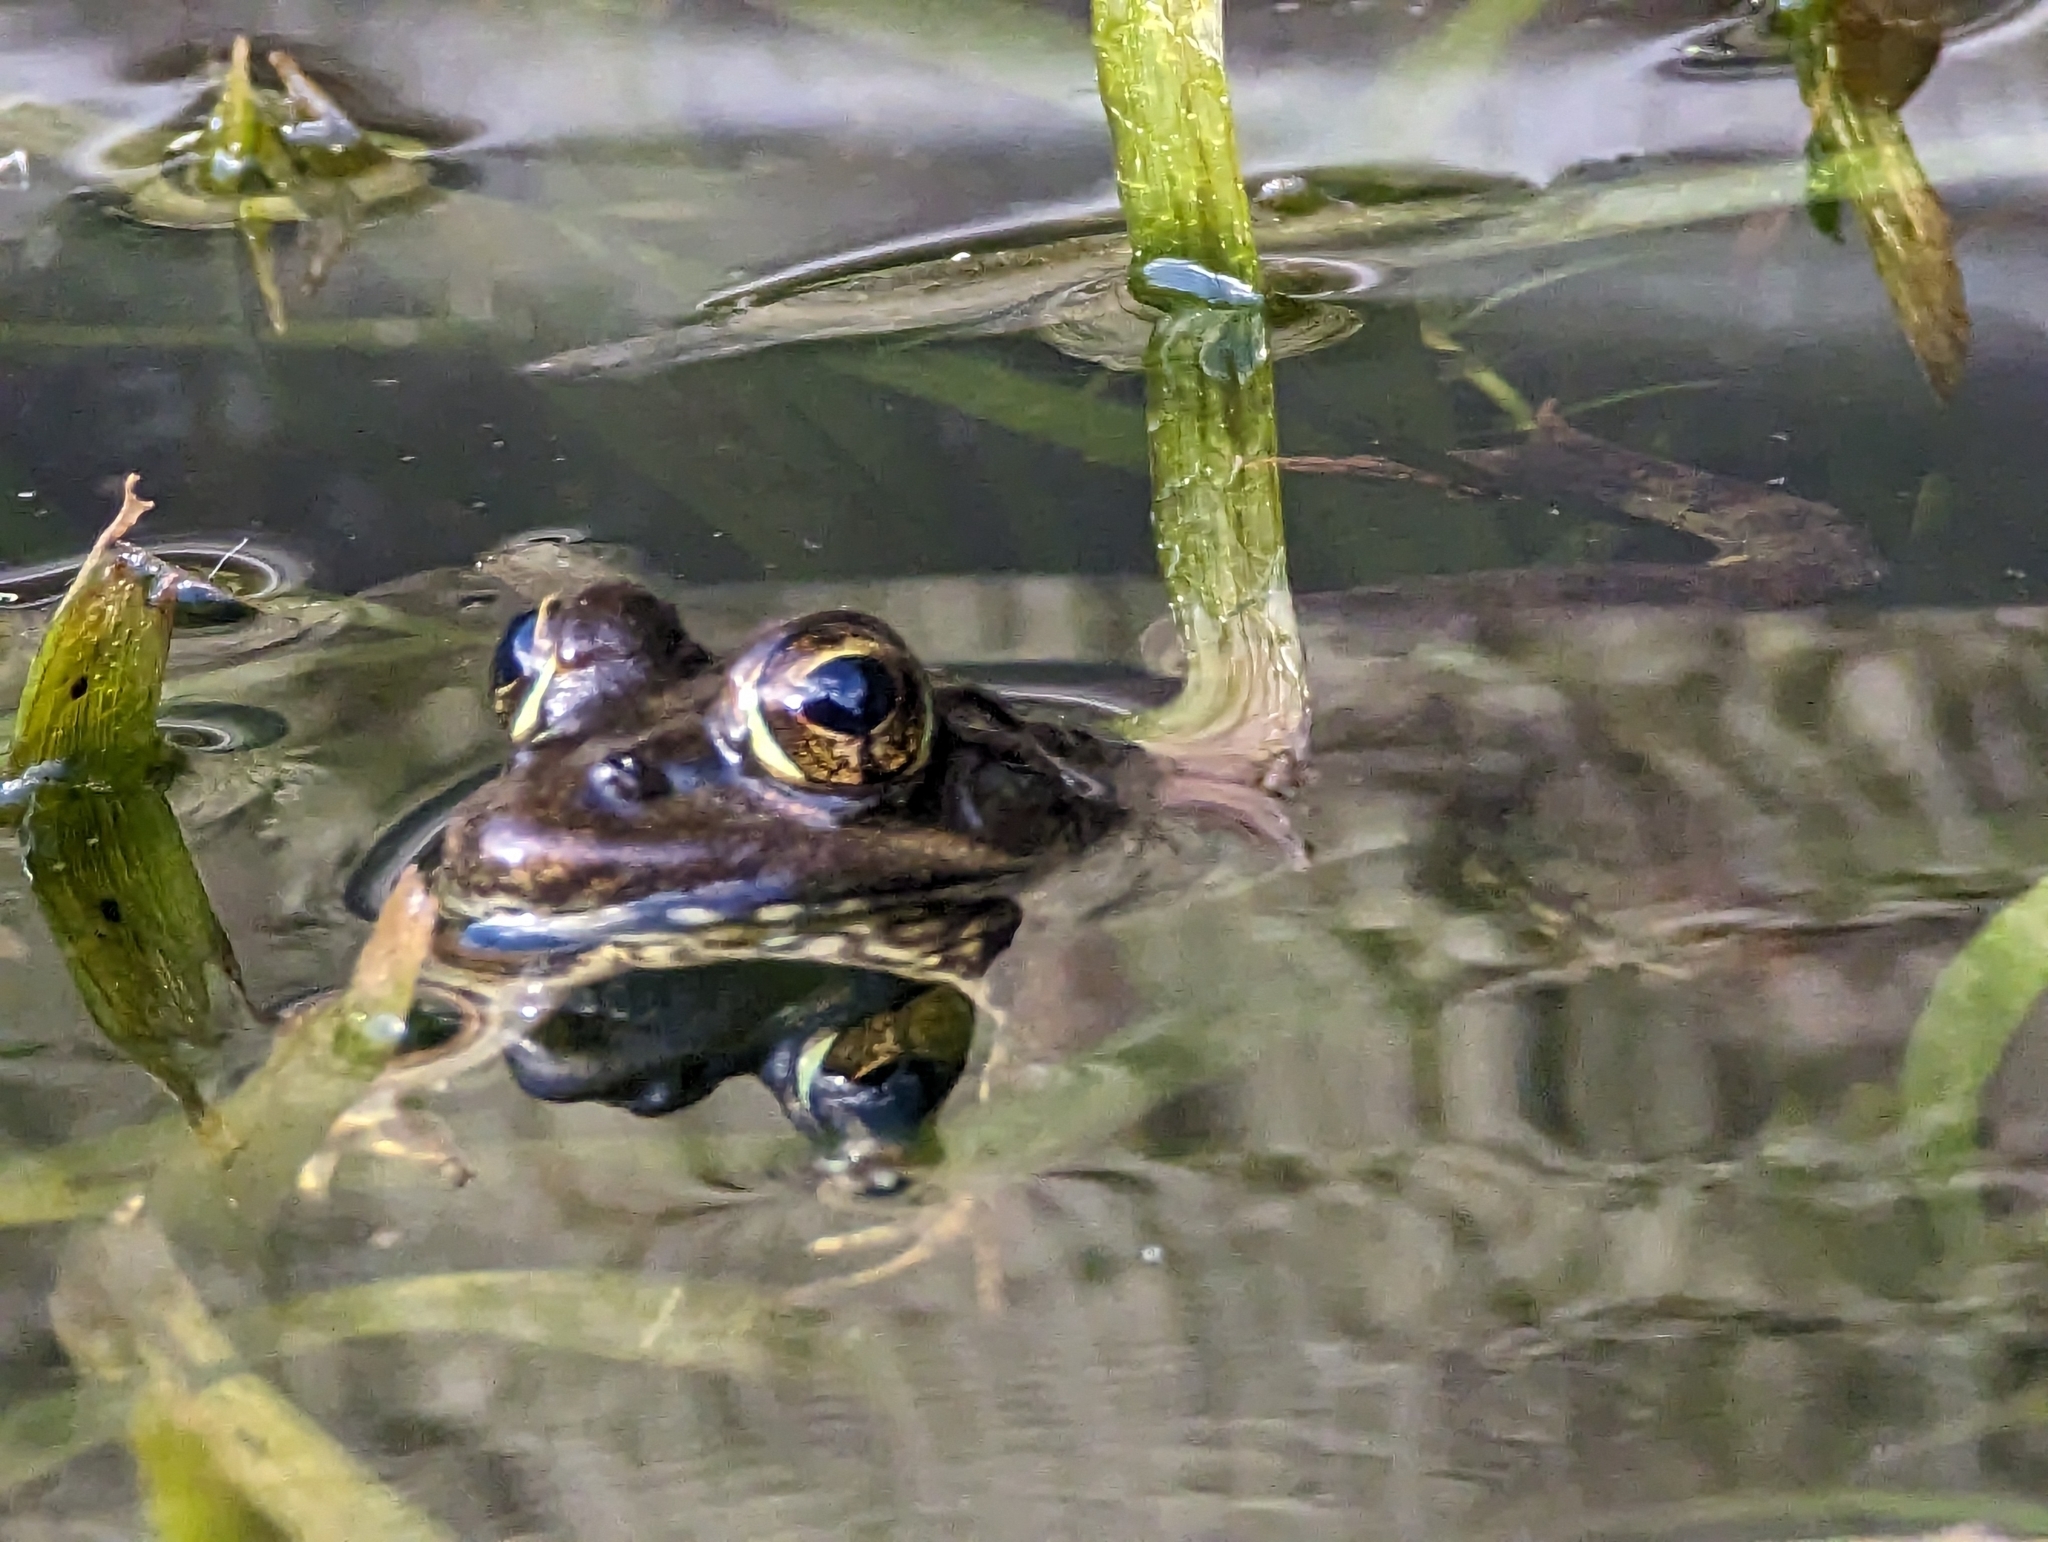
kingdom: Animalia
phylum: Chordata
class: Amphibia
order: Anura
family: Pyxicephalidae
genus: Amietia
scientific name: Amietia fuscigula
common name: Cape rana
